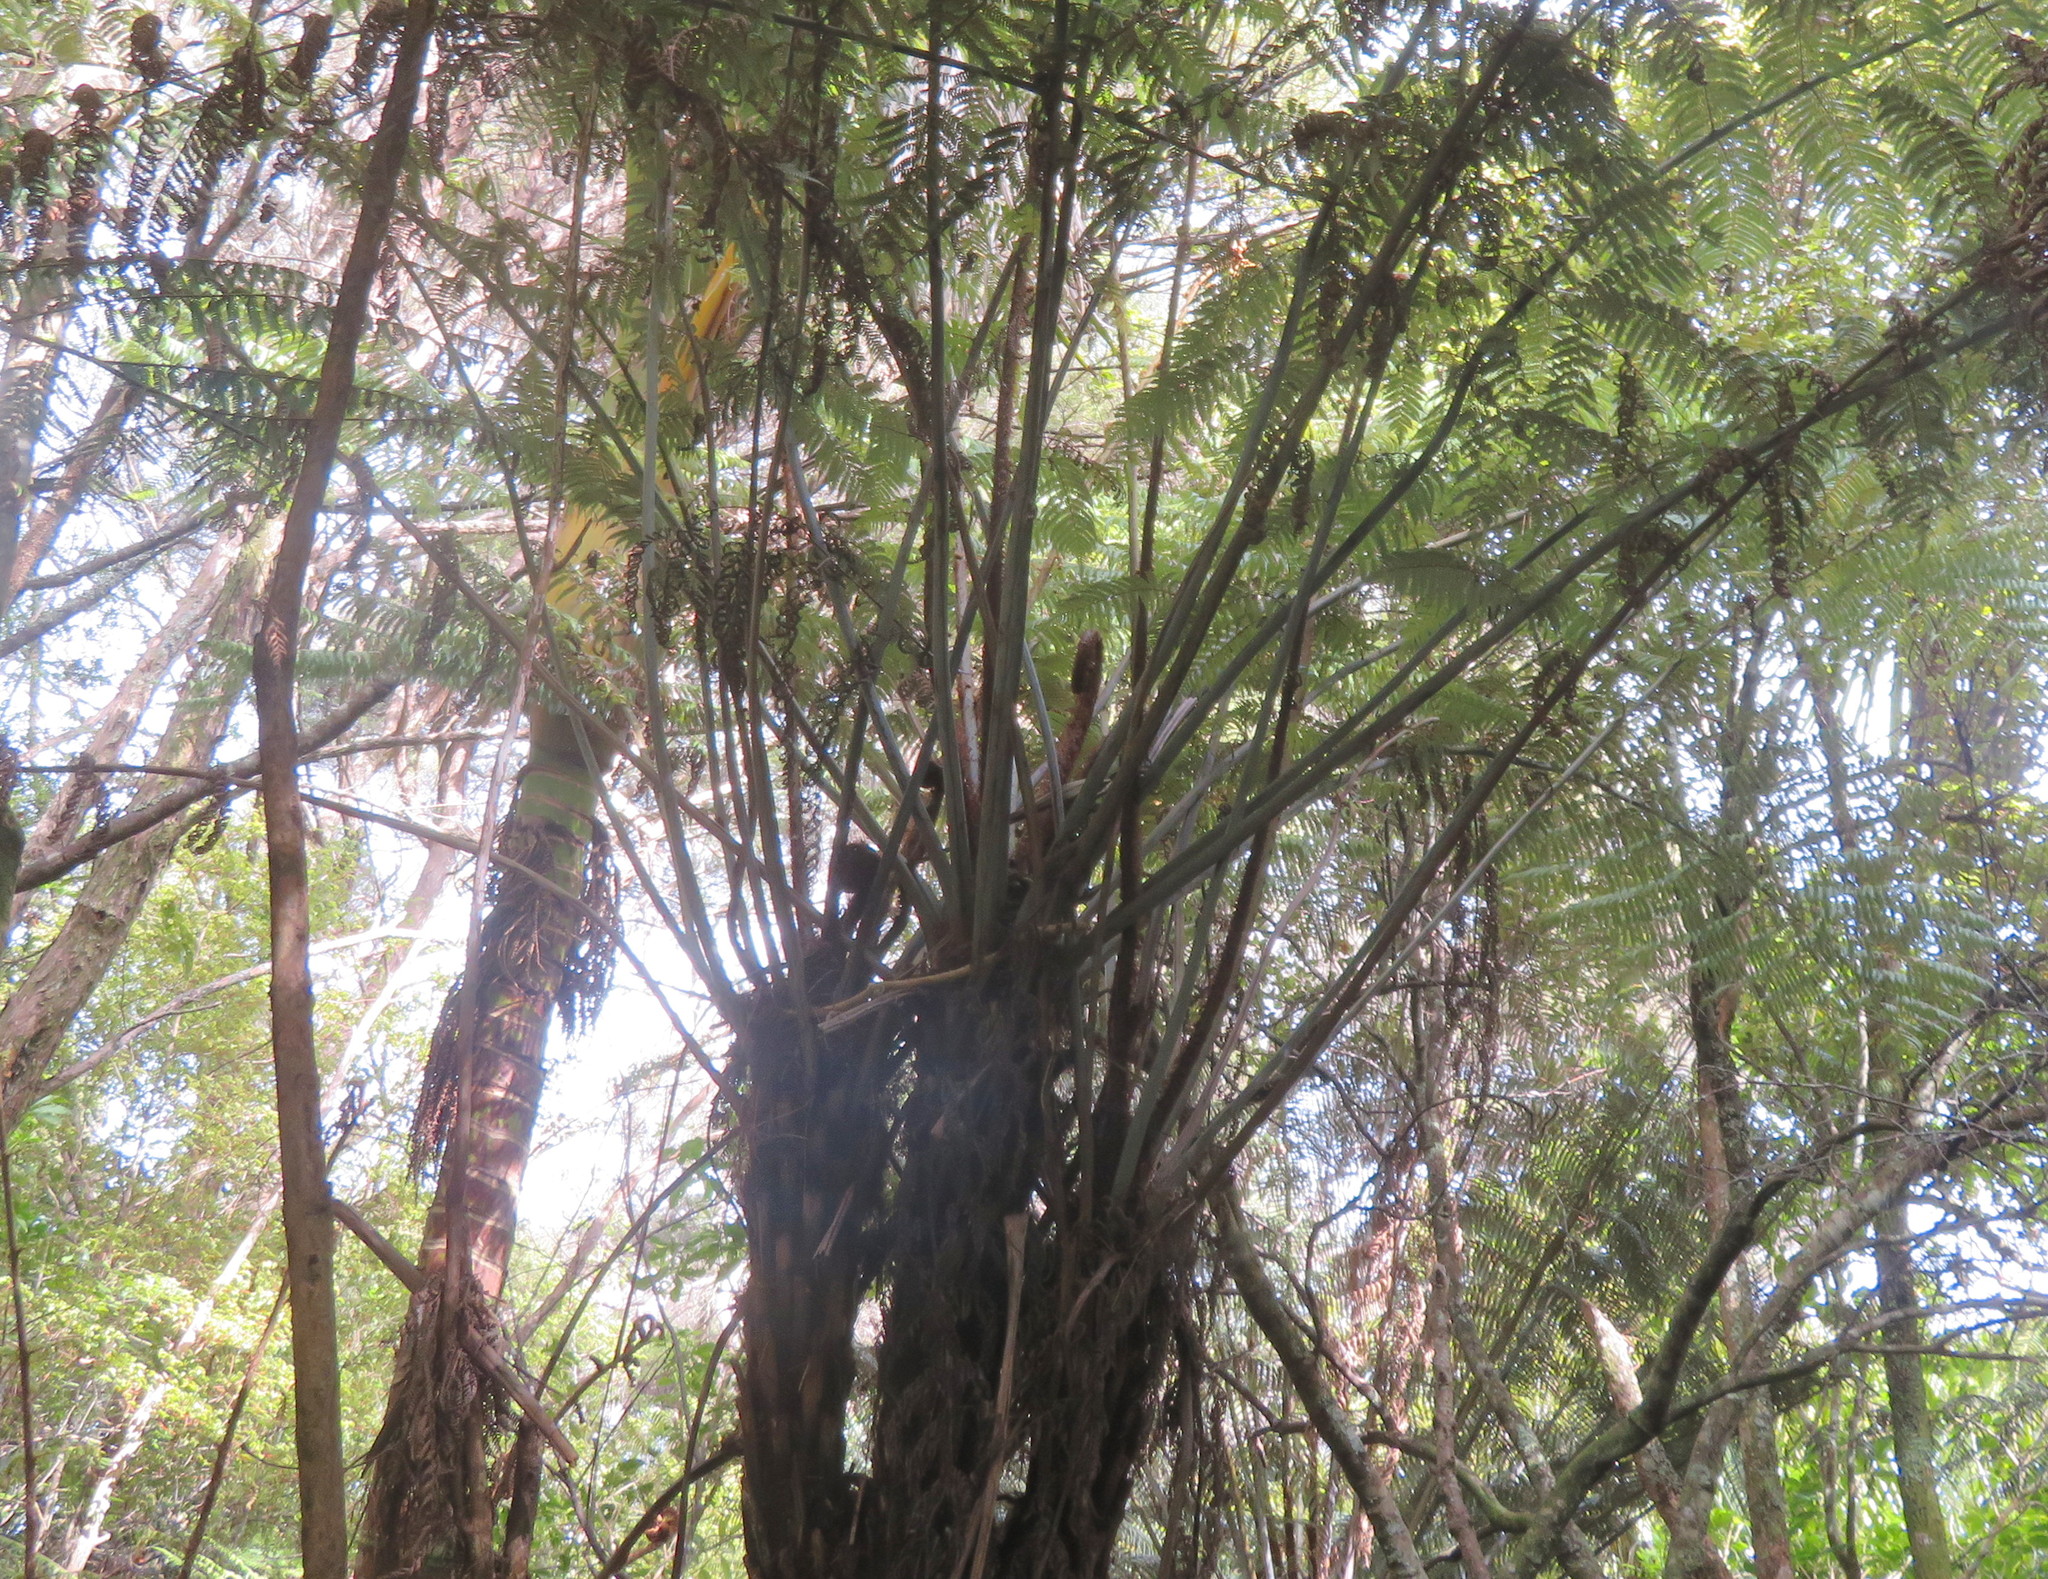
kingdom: Plantae
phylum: Tracheophyta
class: Polypodiopsida
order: Cyatheales
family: Cyatheaceae
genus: Alsophila
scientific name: Alsophila dealbata
